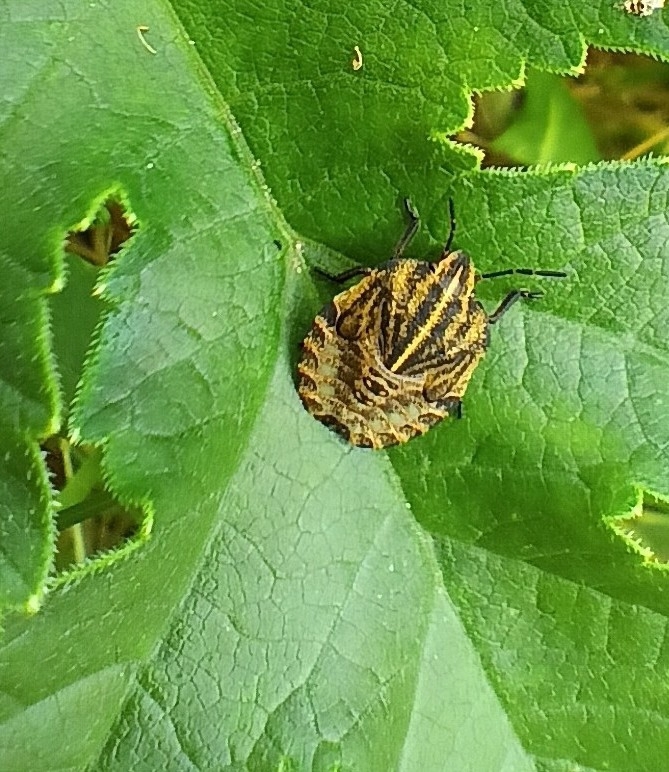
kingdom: Animalia
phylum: Arthropoda
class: Insecta
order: Hemiptera
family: Pentatomidae
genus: Graphosoma
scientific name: Graphosoma italicum
